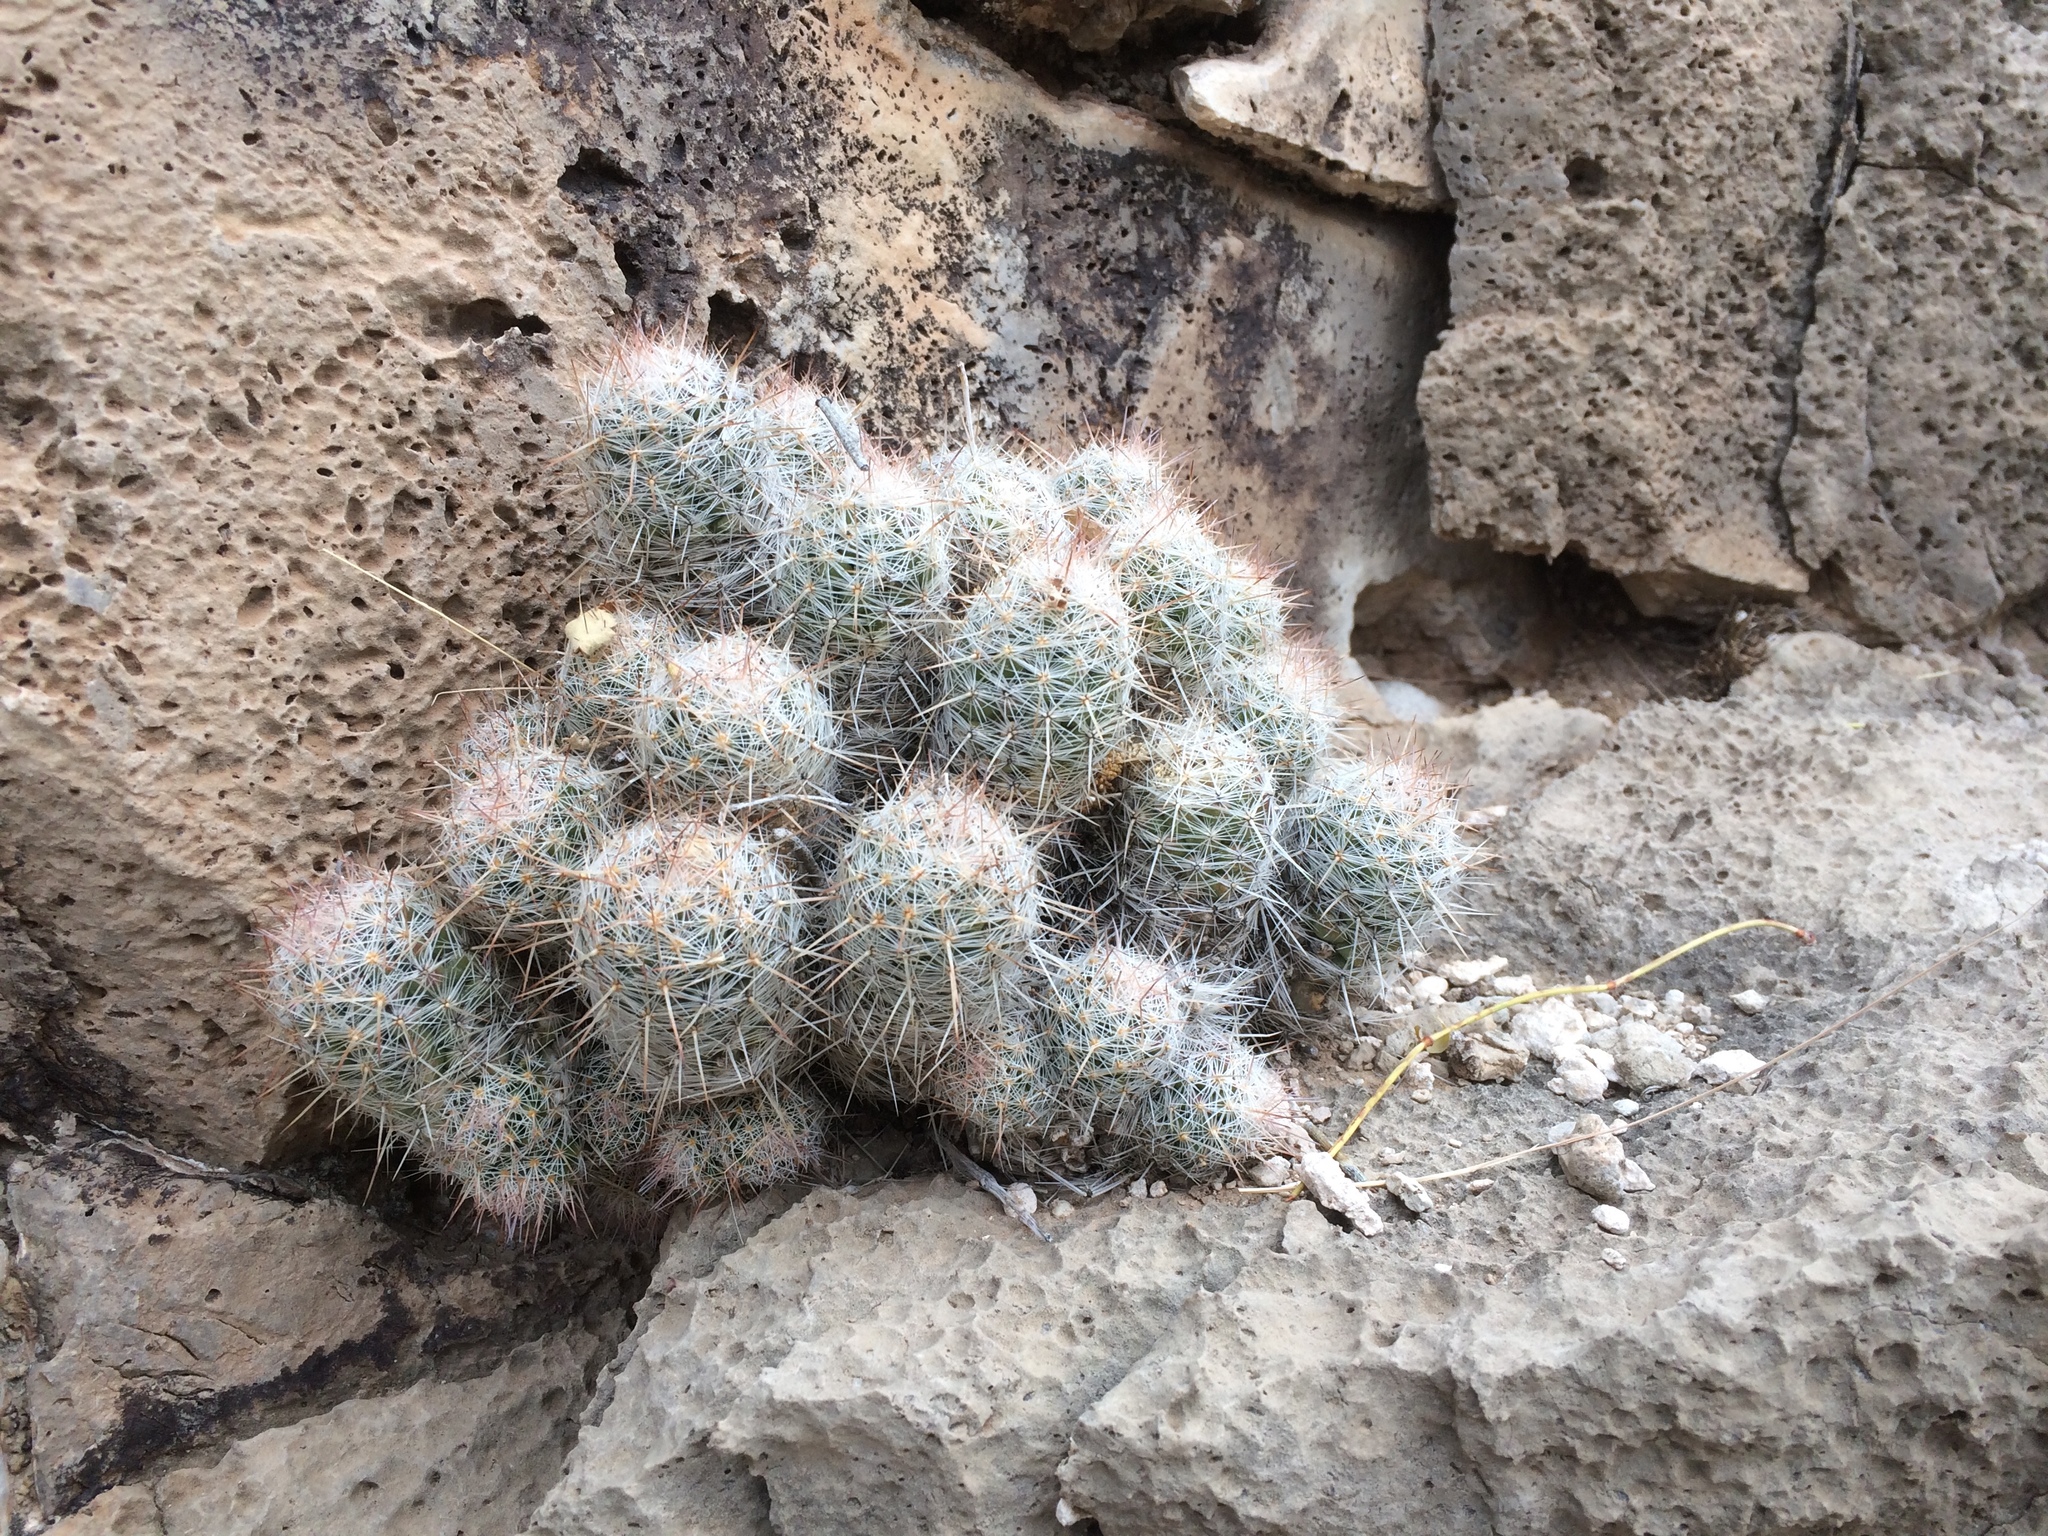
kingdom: Plantae
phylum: Tracheophyta
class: Magnoliopsida
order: Caryophyllales
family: Cactaceae
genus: Pelecyphora
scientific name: Pelecyphora tuberculosa
